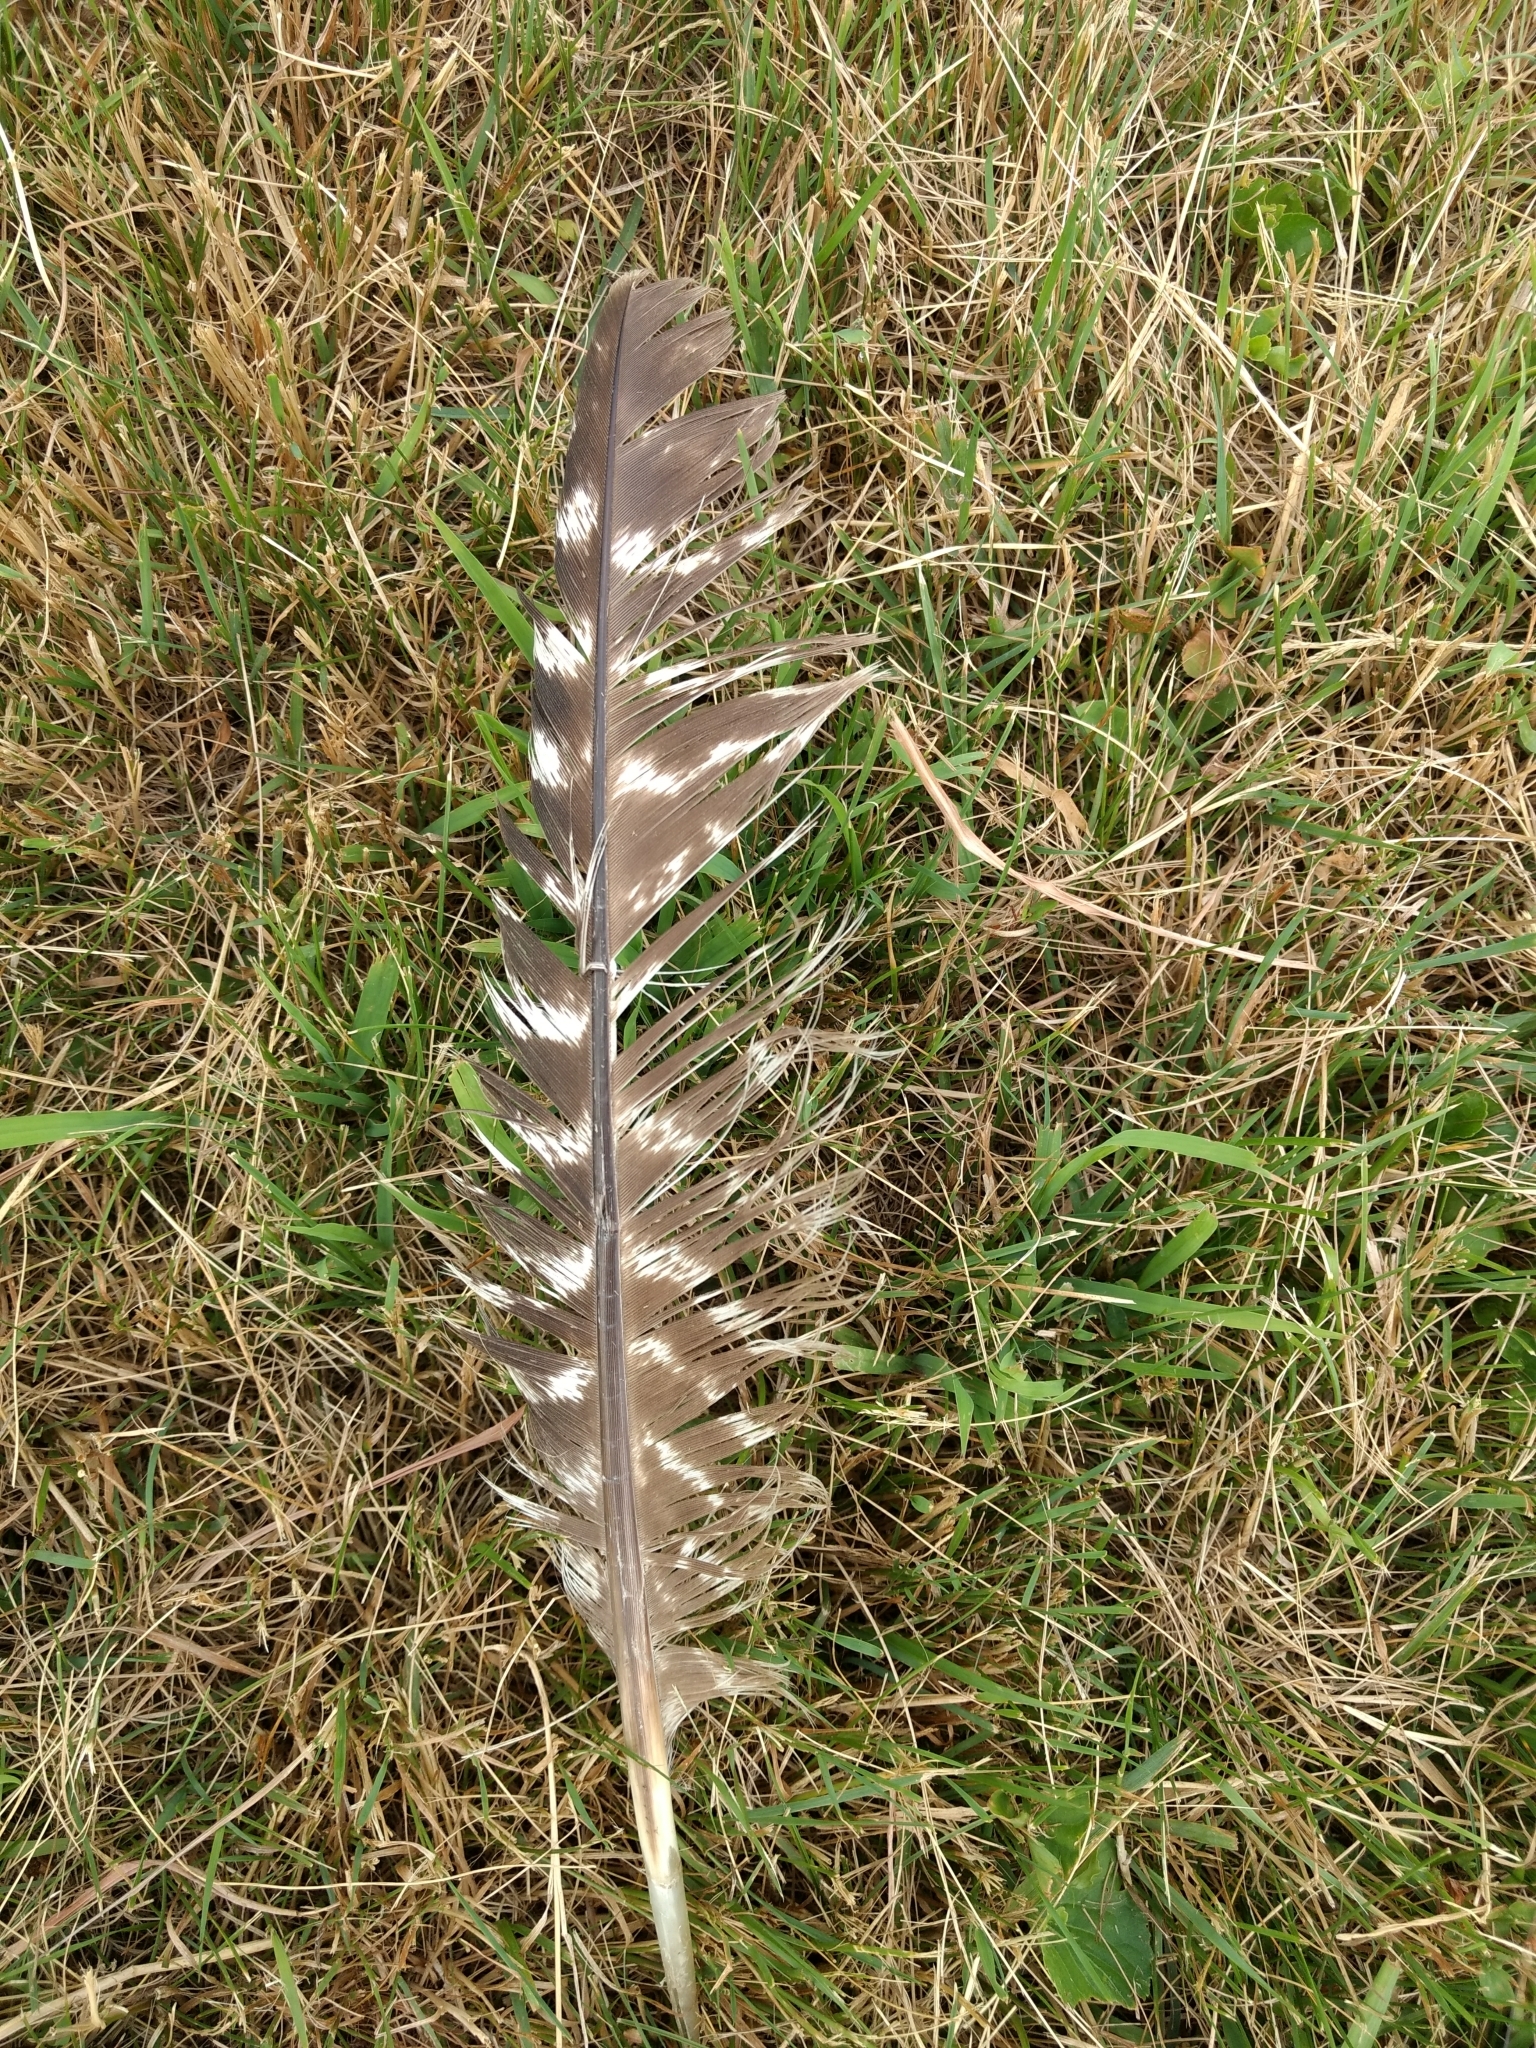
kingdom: Animalia
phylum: Chordata
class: Aves
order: Galliformes
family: Phasianidae
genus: Meleagris
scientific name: Meleagris gallopavo
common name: Wild turkey
